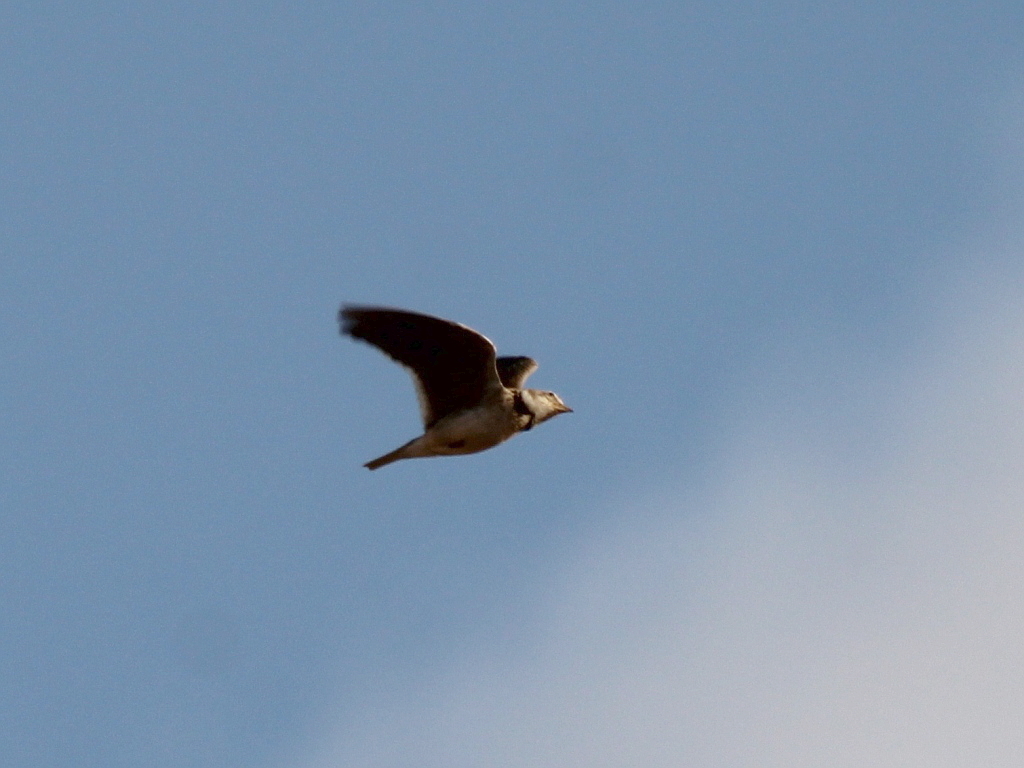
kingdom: Animalia
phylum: Chordata
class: Aves
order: Passeriformes
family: Alaudidae
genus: Melanocorypha
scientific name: Melanocorypha calandra
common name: Calandra lark
